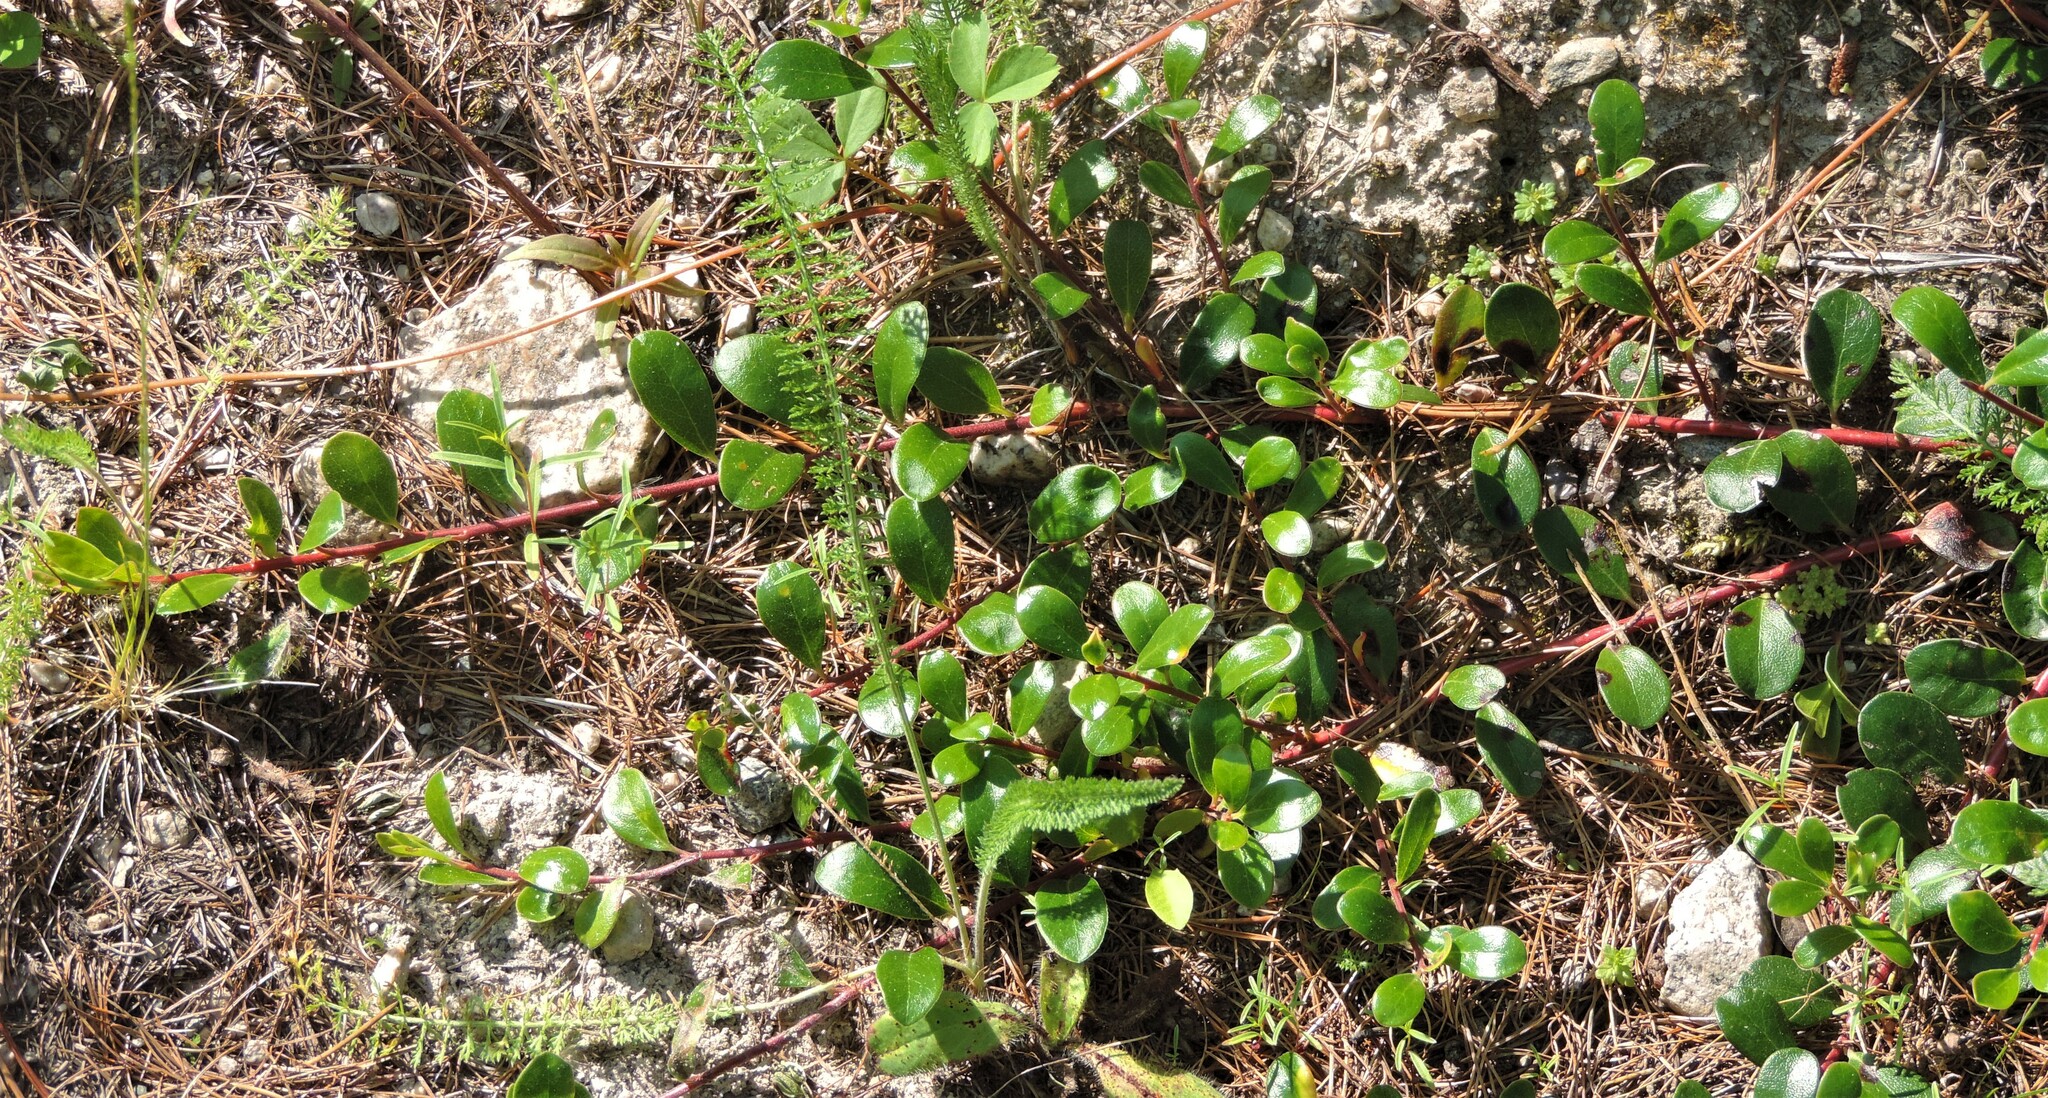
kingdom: Plantae
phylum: Tracheophyta
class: Magnoliopsida
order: Ericales
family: Ericaceae
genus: Arctostaphylos
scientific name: Arctostaphylos uva-ursi
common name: Bearberry
